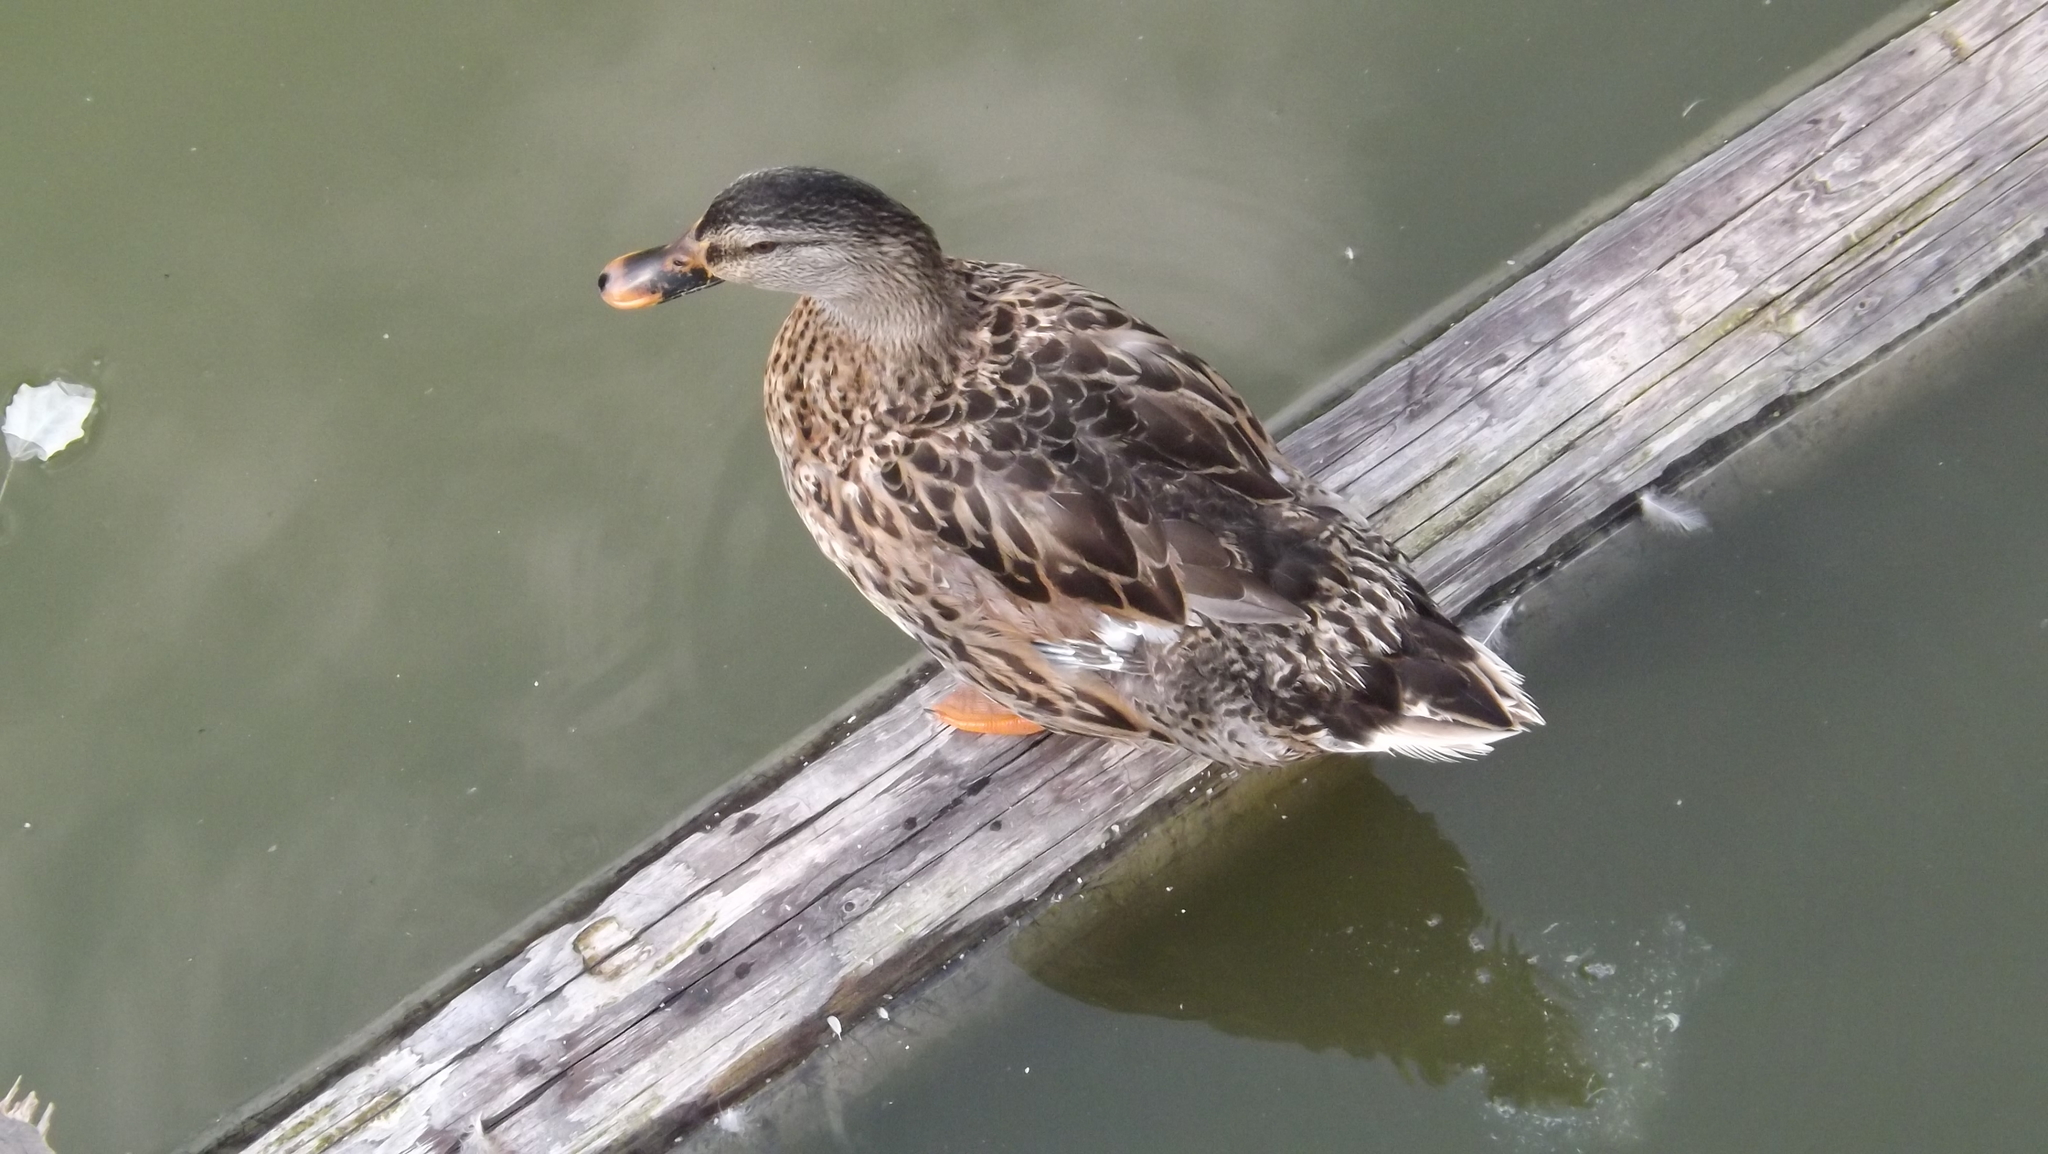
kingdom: Animalia
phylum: Chordata
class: Aves
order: Anseriformes
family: Anatidae
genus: Anas
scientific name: Anas platyrhynchos
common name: Mallard
